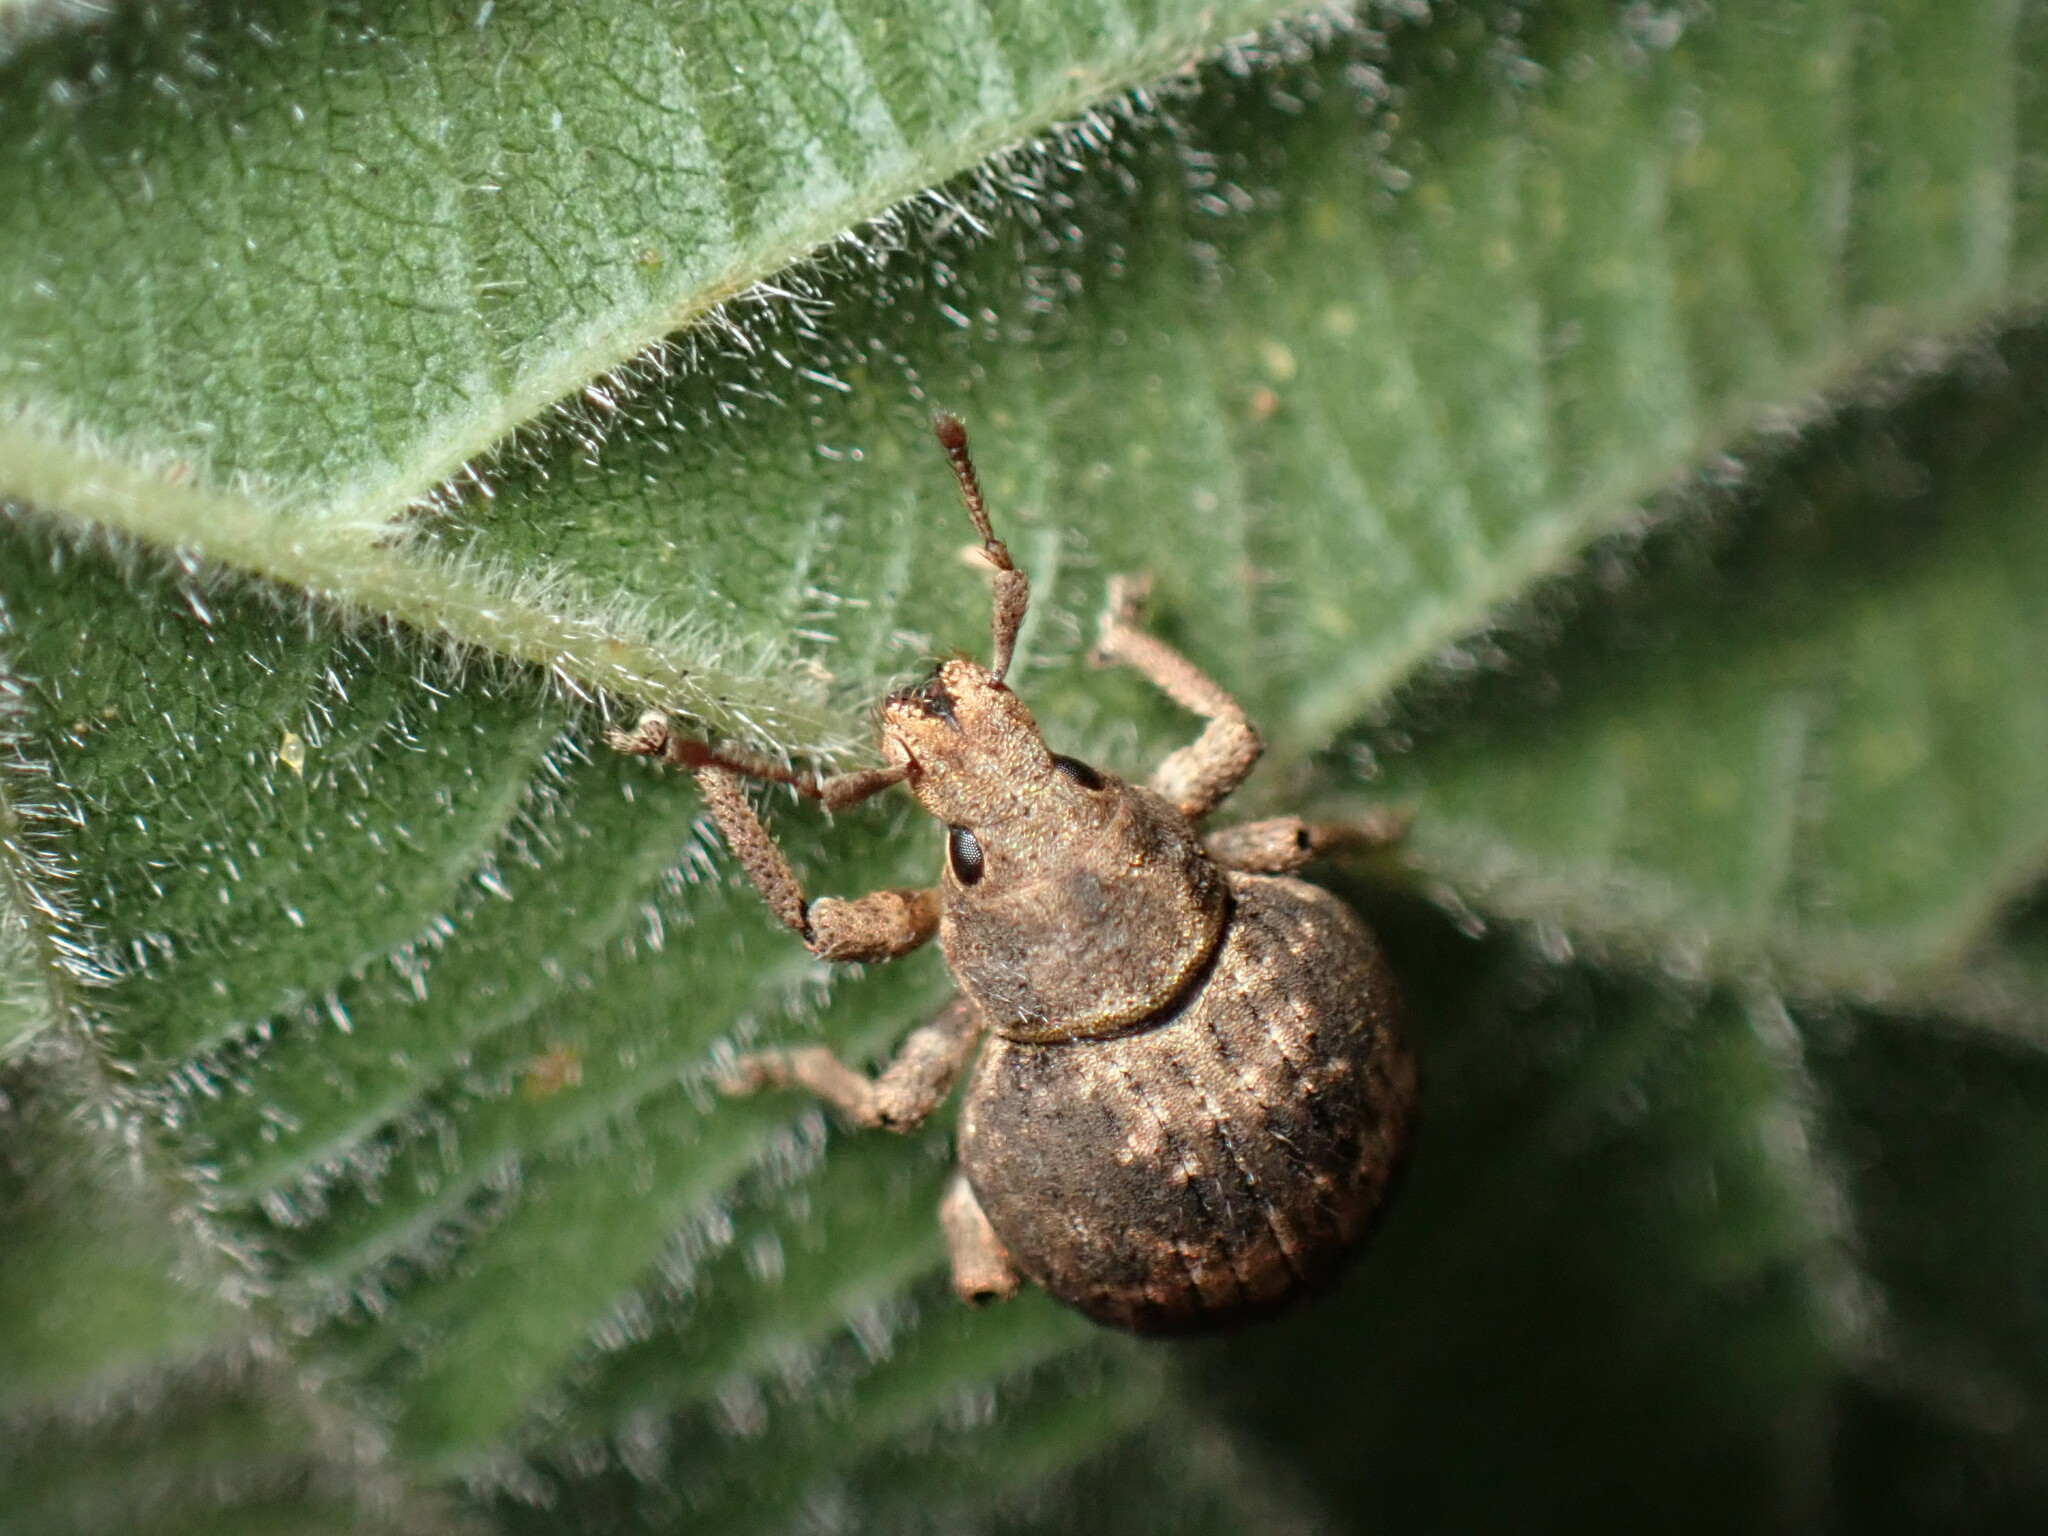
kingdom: Animalia
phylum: Arthropoda
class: Insecta
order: Coleoptera
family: Curculionidae
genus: Pseudocneorhinus
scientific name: Pseudocneorhinus bifasciatus
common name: Two-banded japanese weevil
